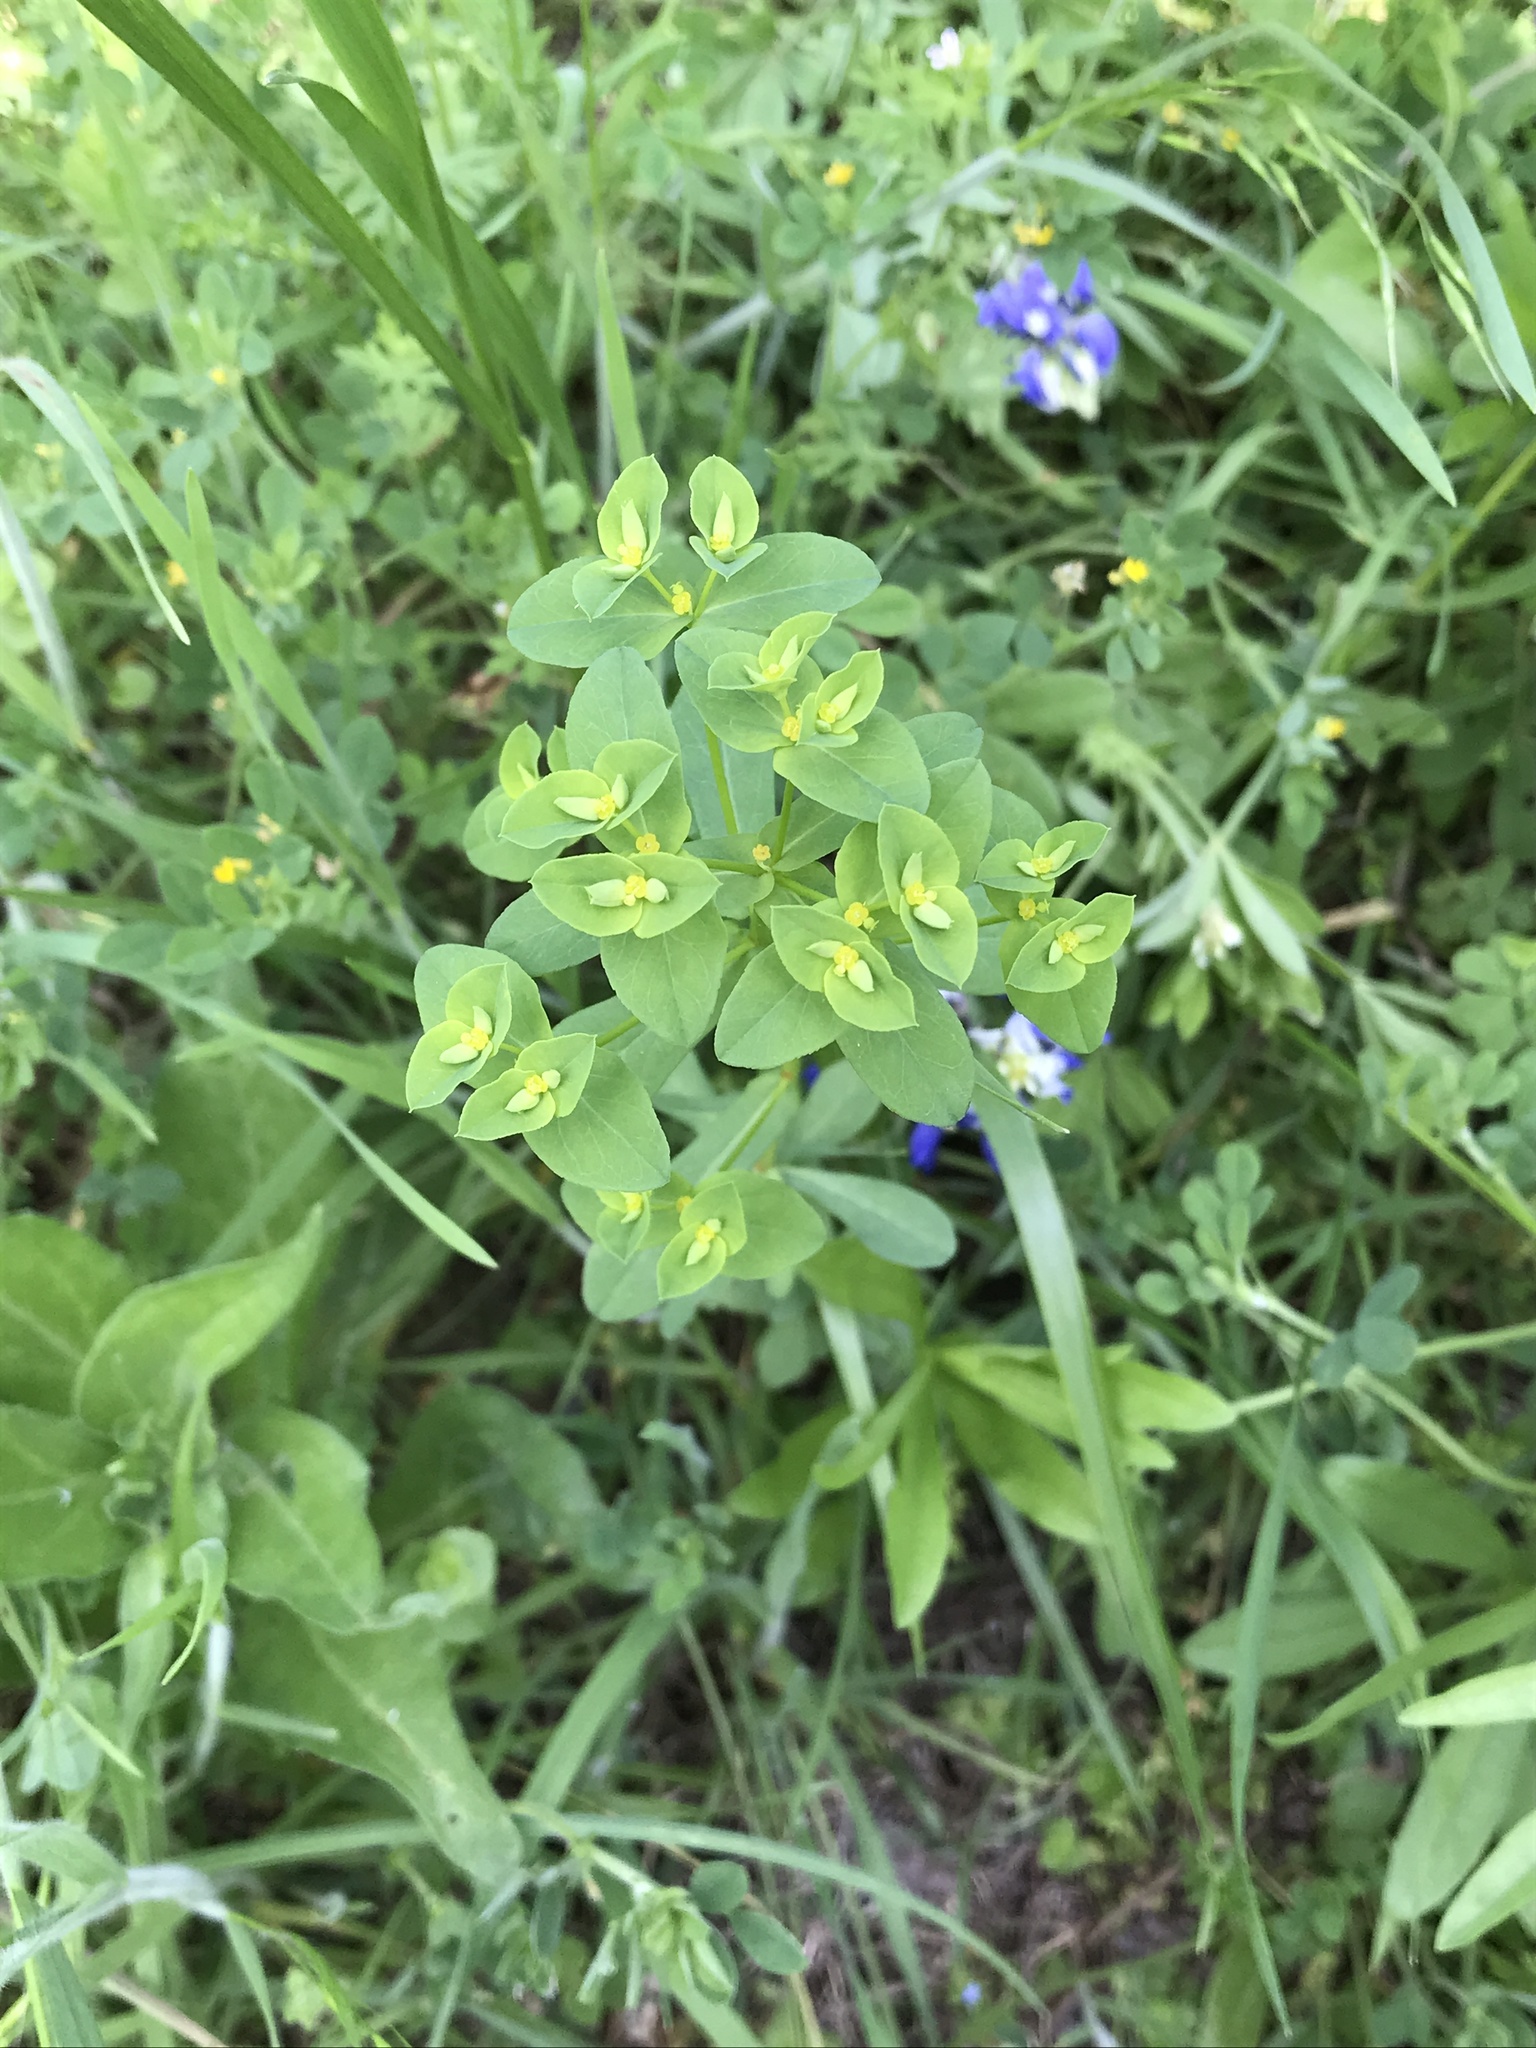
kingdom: Plantae
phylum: Tracheophyta
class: Magnoliopsida
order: Malpighiales
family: Euphorbiaceae
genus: Euphorbia
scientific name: Euphorbia spathulata
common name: Blunt spurge
